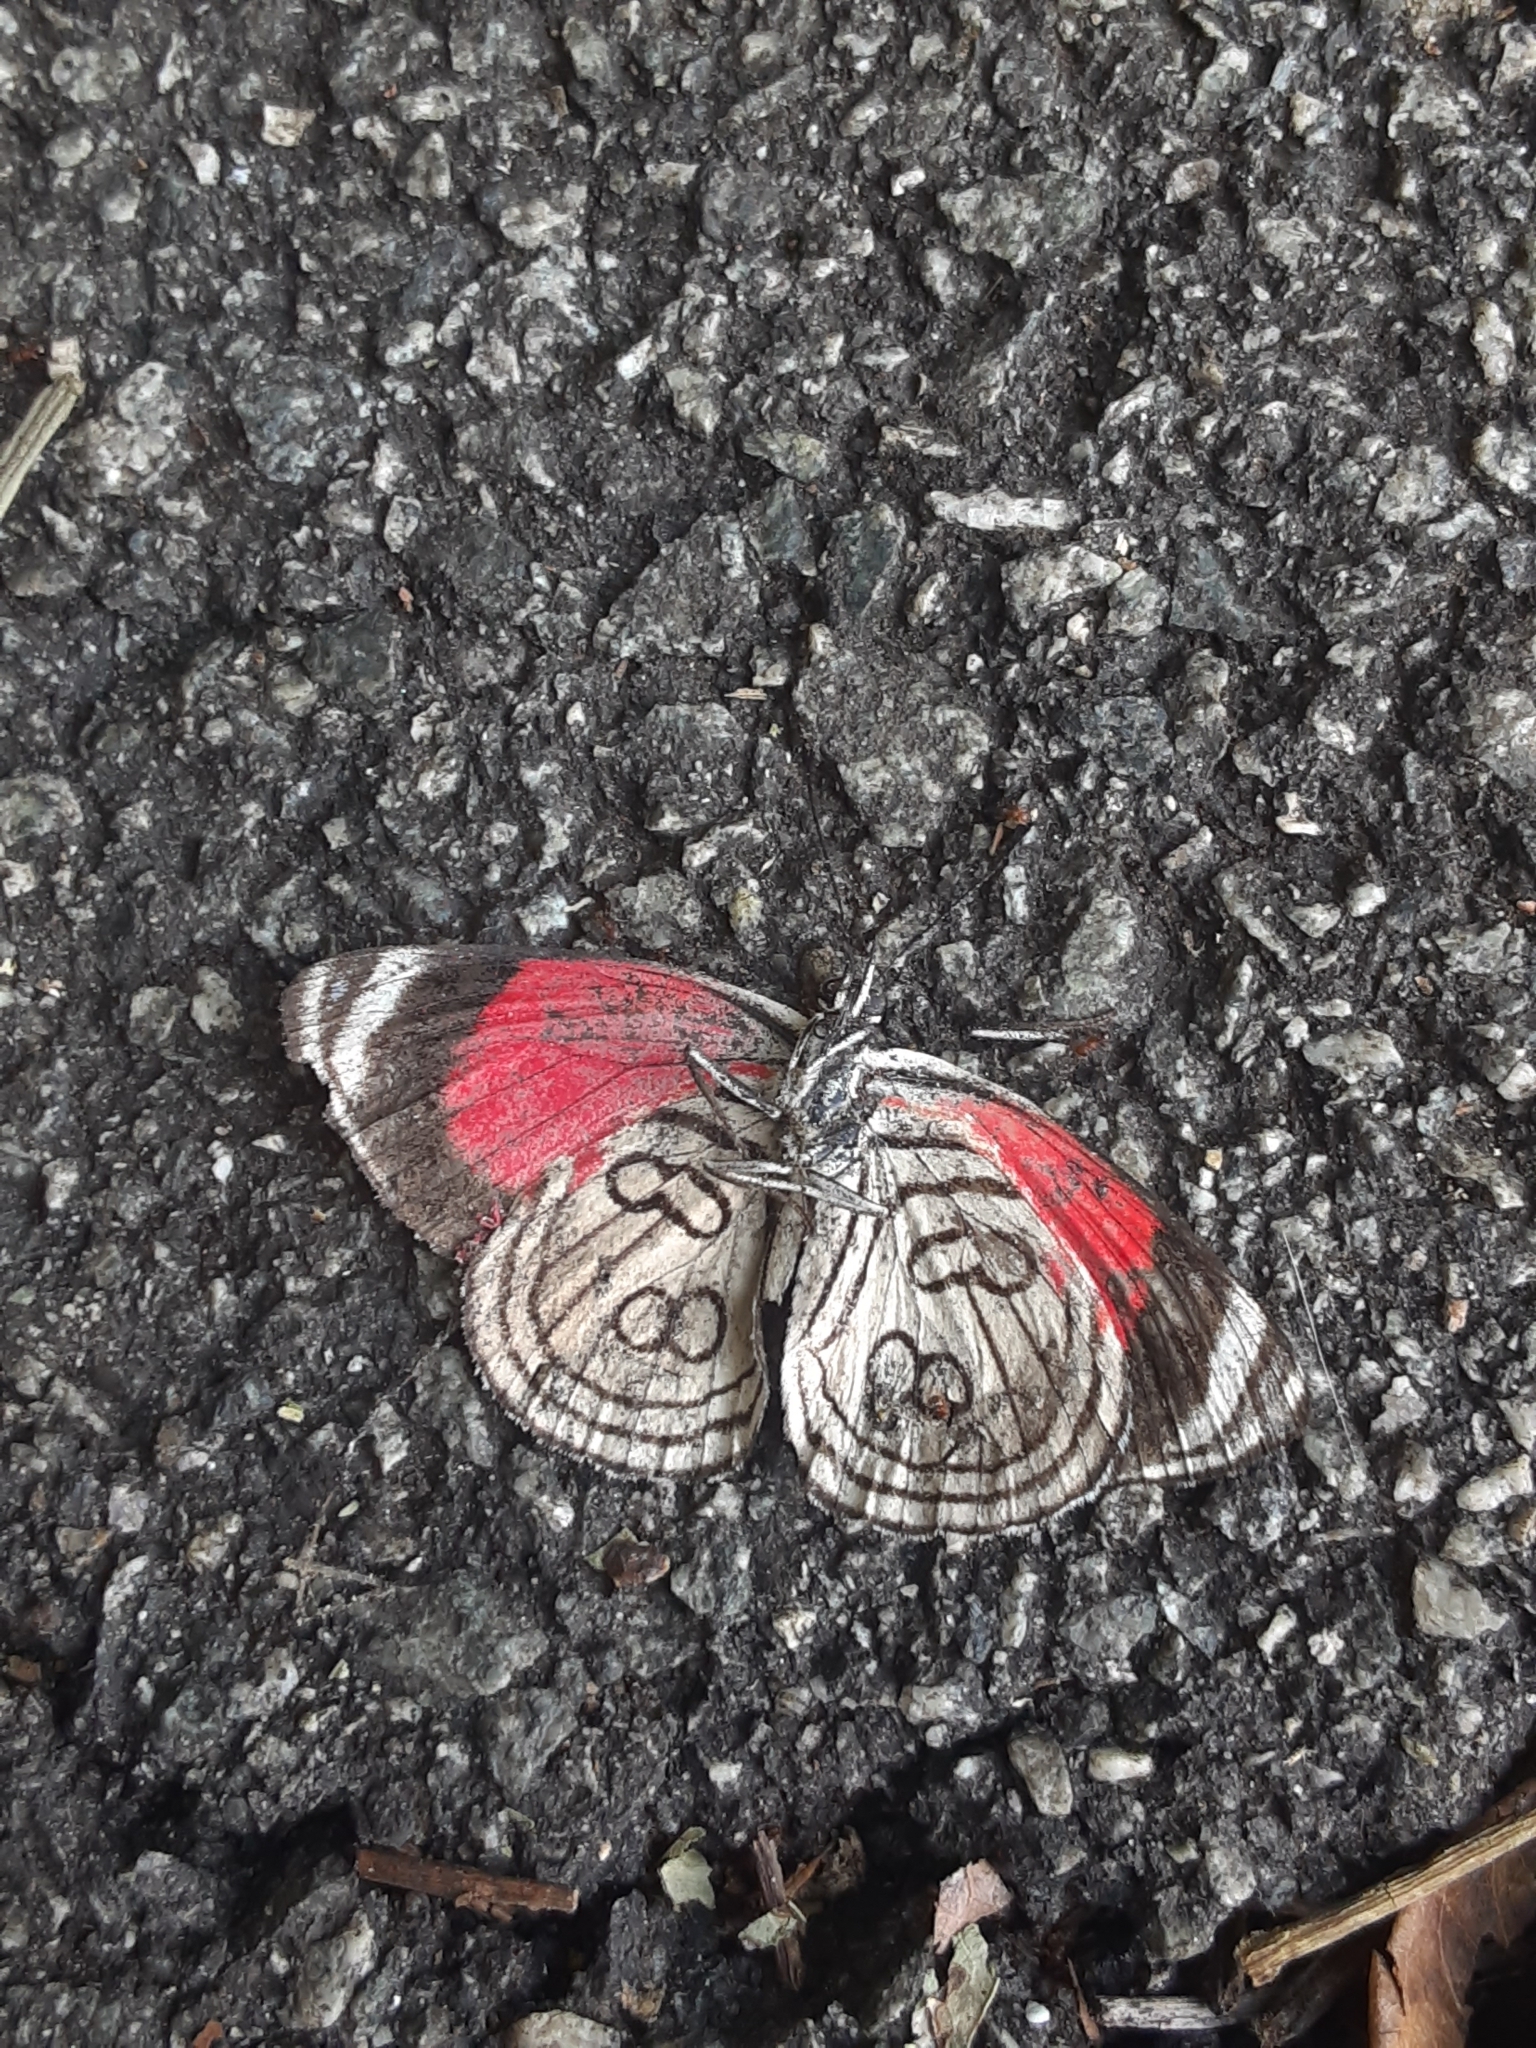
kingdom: Animalia
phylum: Arthropoda
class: Insecta
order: Lepidoptera
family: Nymphalidae
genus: Diaethria
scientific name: Diaethria candrena
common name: Number eighty
